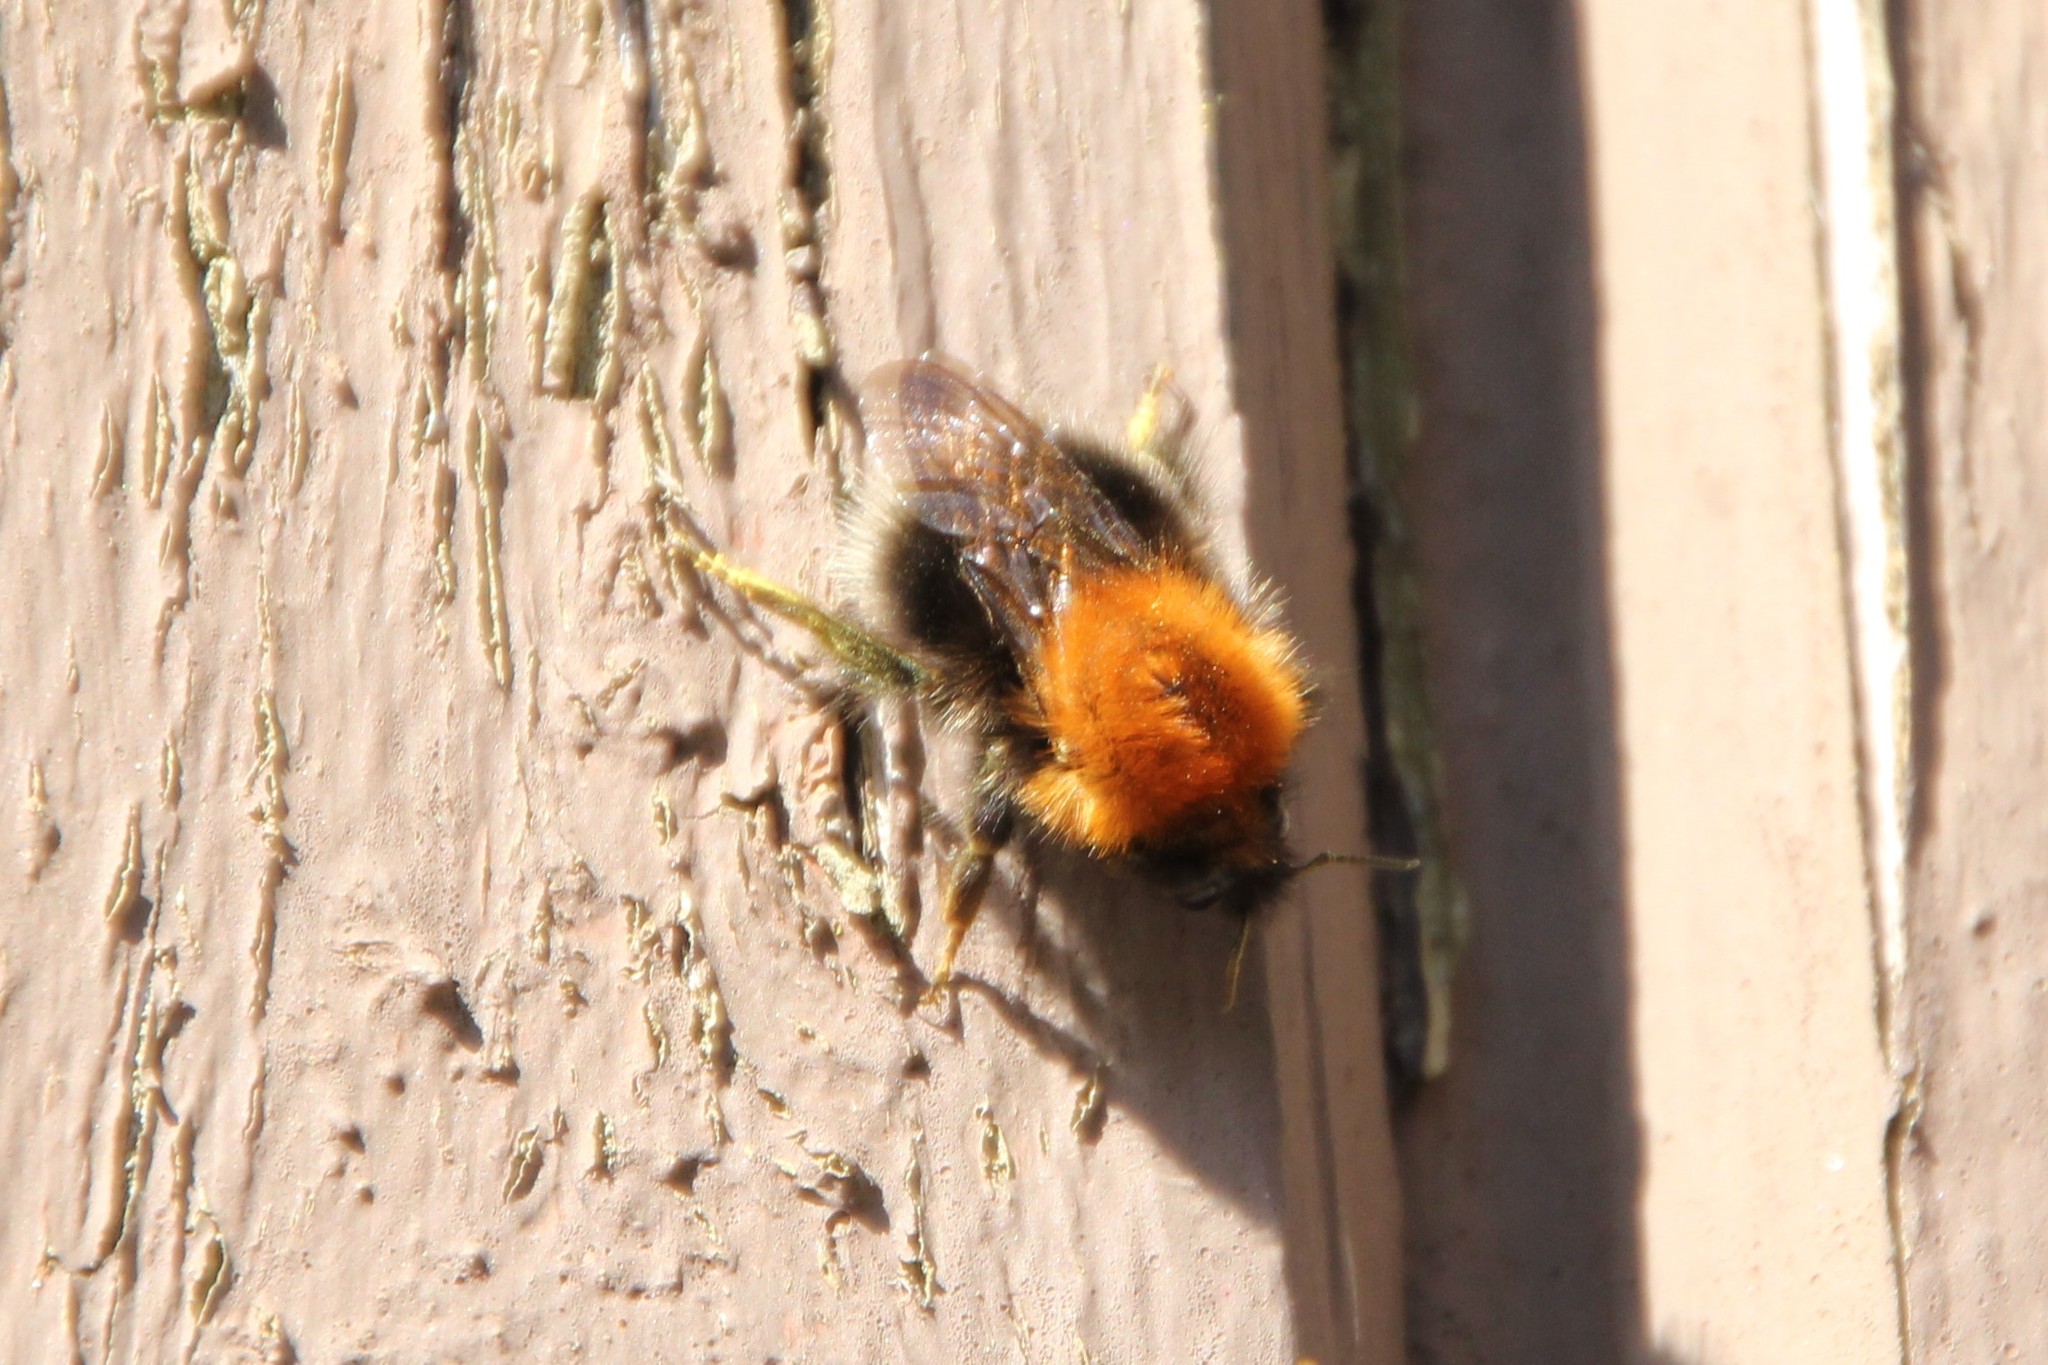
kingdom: Animalia
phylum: Arthropoda
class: Insecta
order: Hymenoptera
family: Apidae
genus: Bombus
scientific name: Bombus hypnorum
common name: New garden bumblebee
